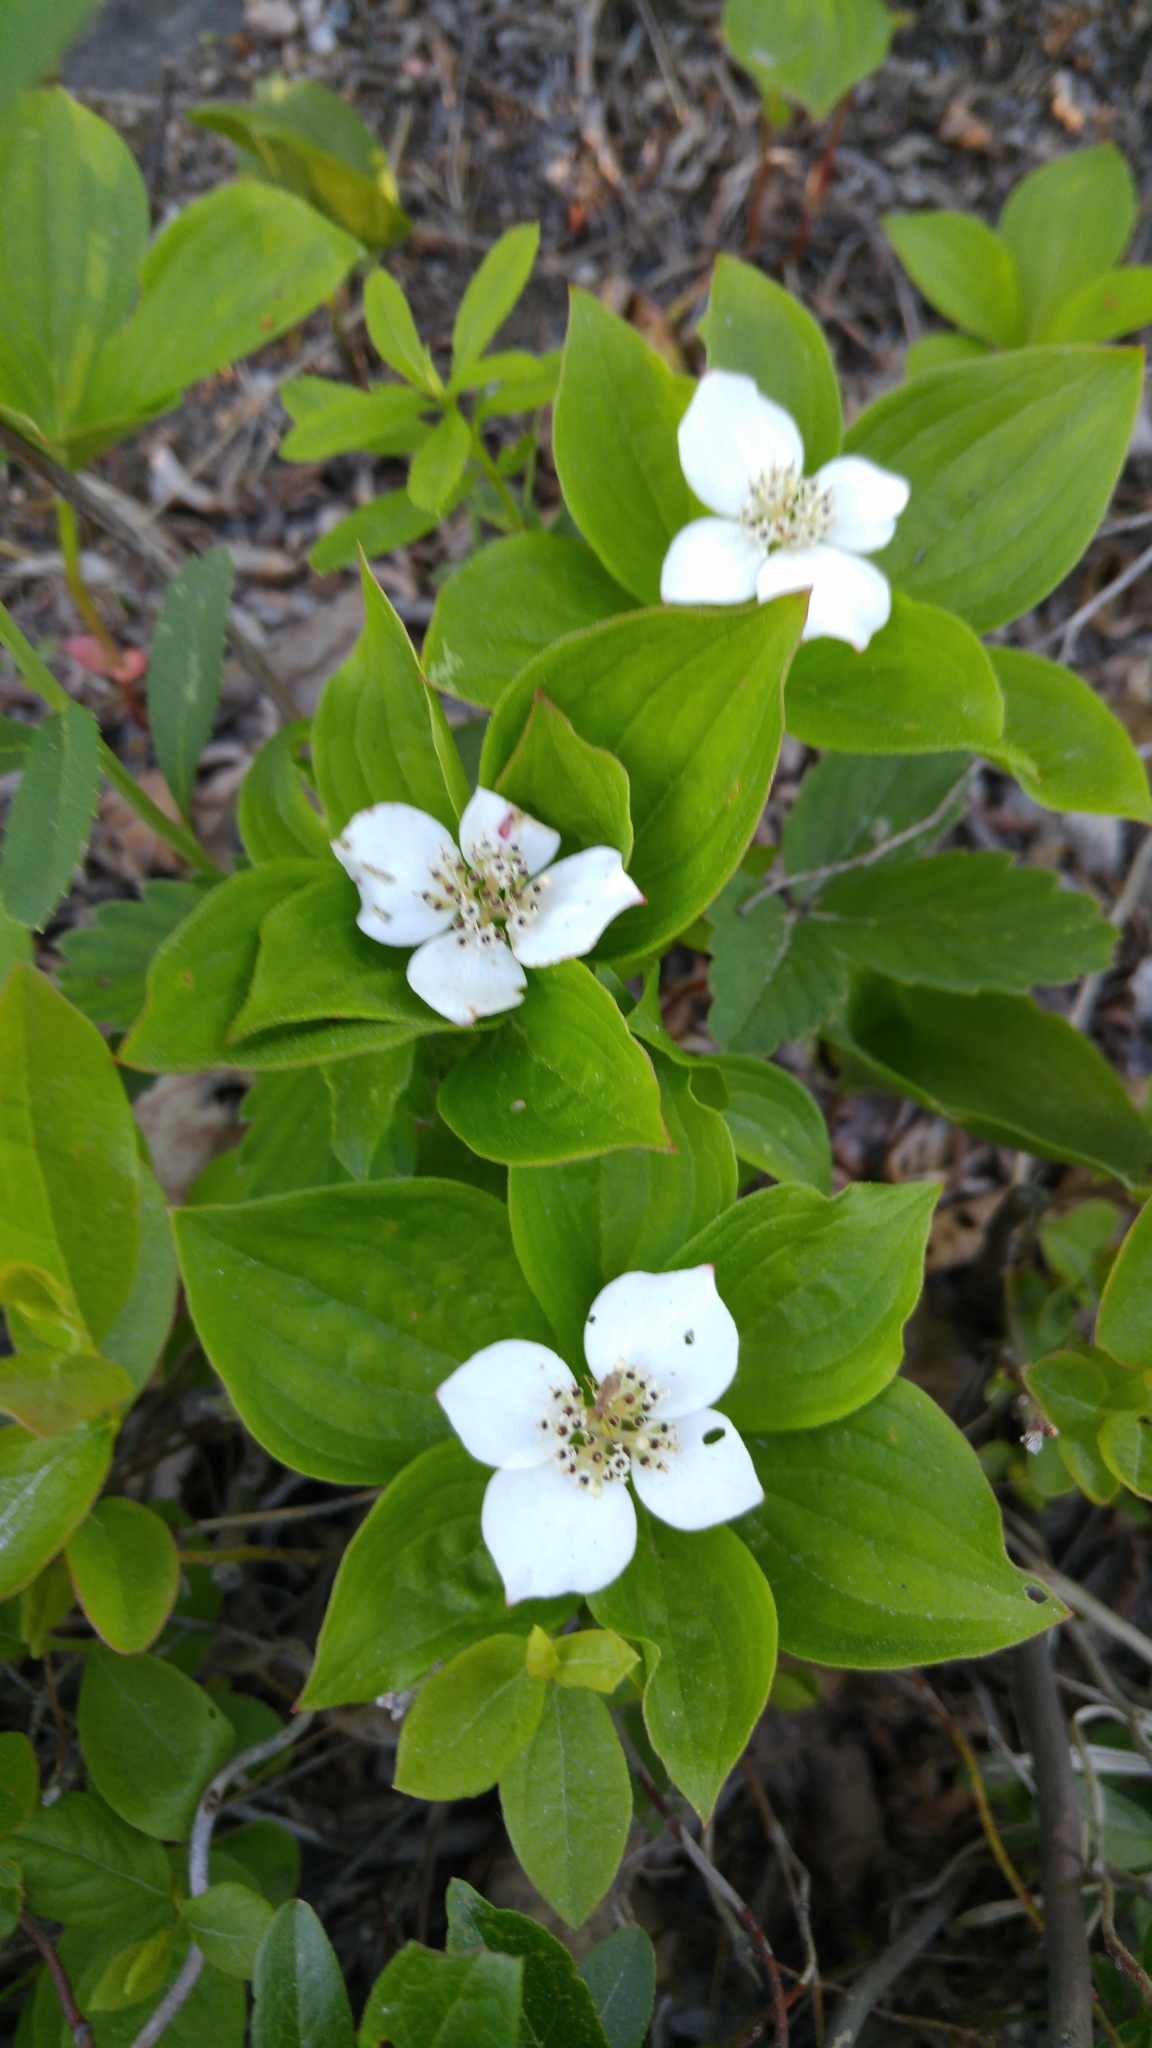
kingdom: Plantae
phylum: Tracheophyta
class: Magnoliopsida
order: Cornales
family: Cornaceae
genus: Cornus
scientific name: Cornus canadensis
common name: Creeping dogwood
